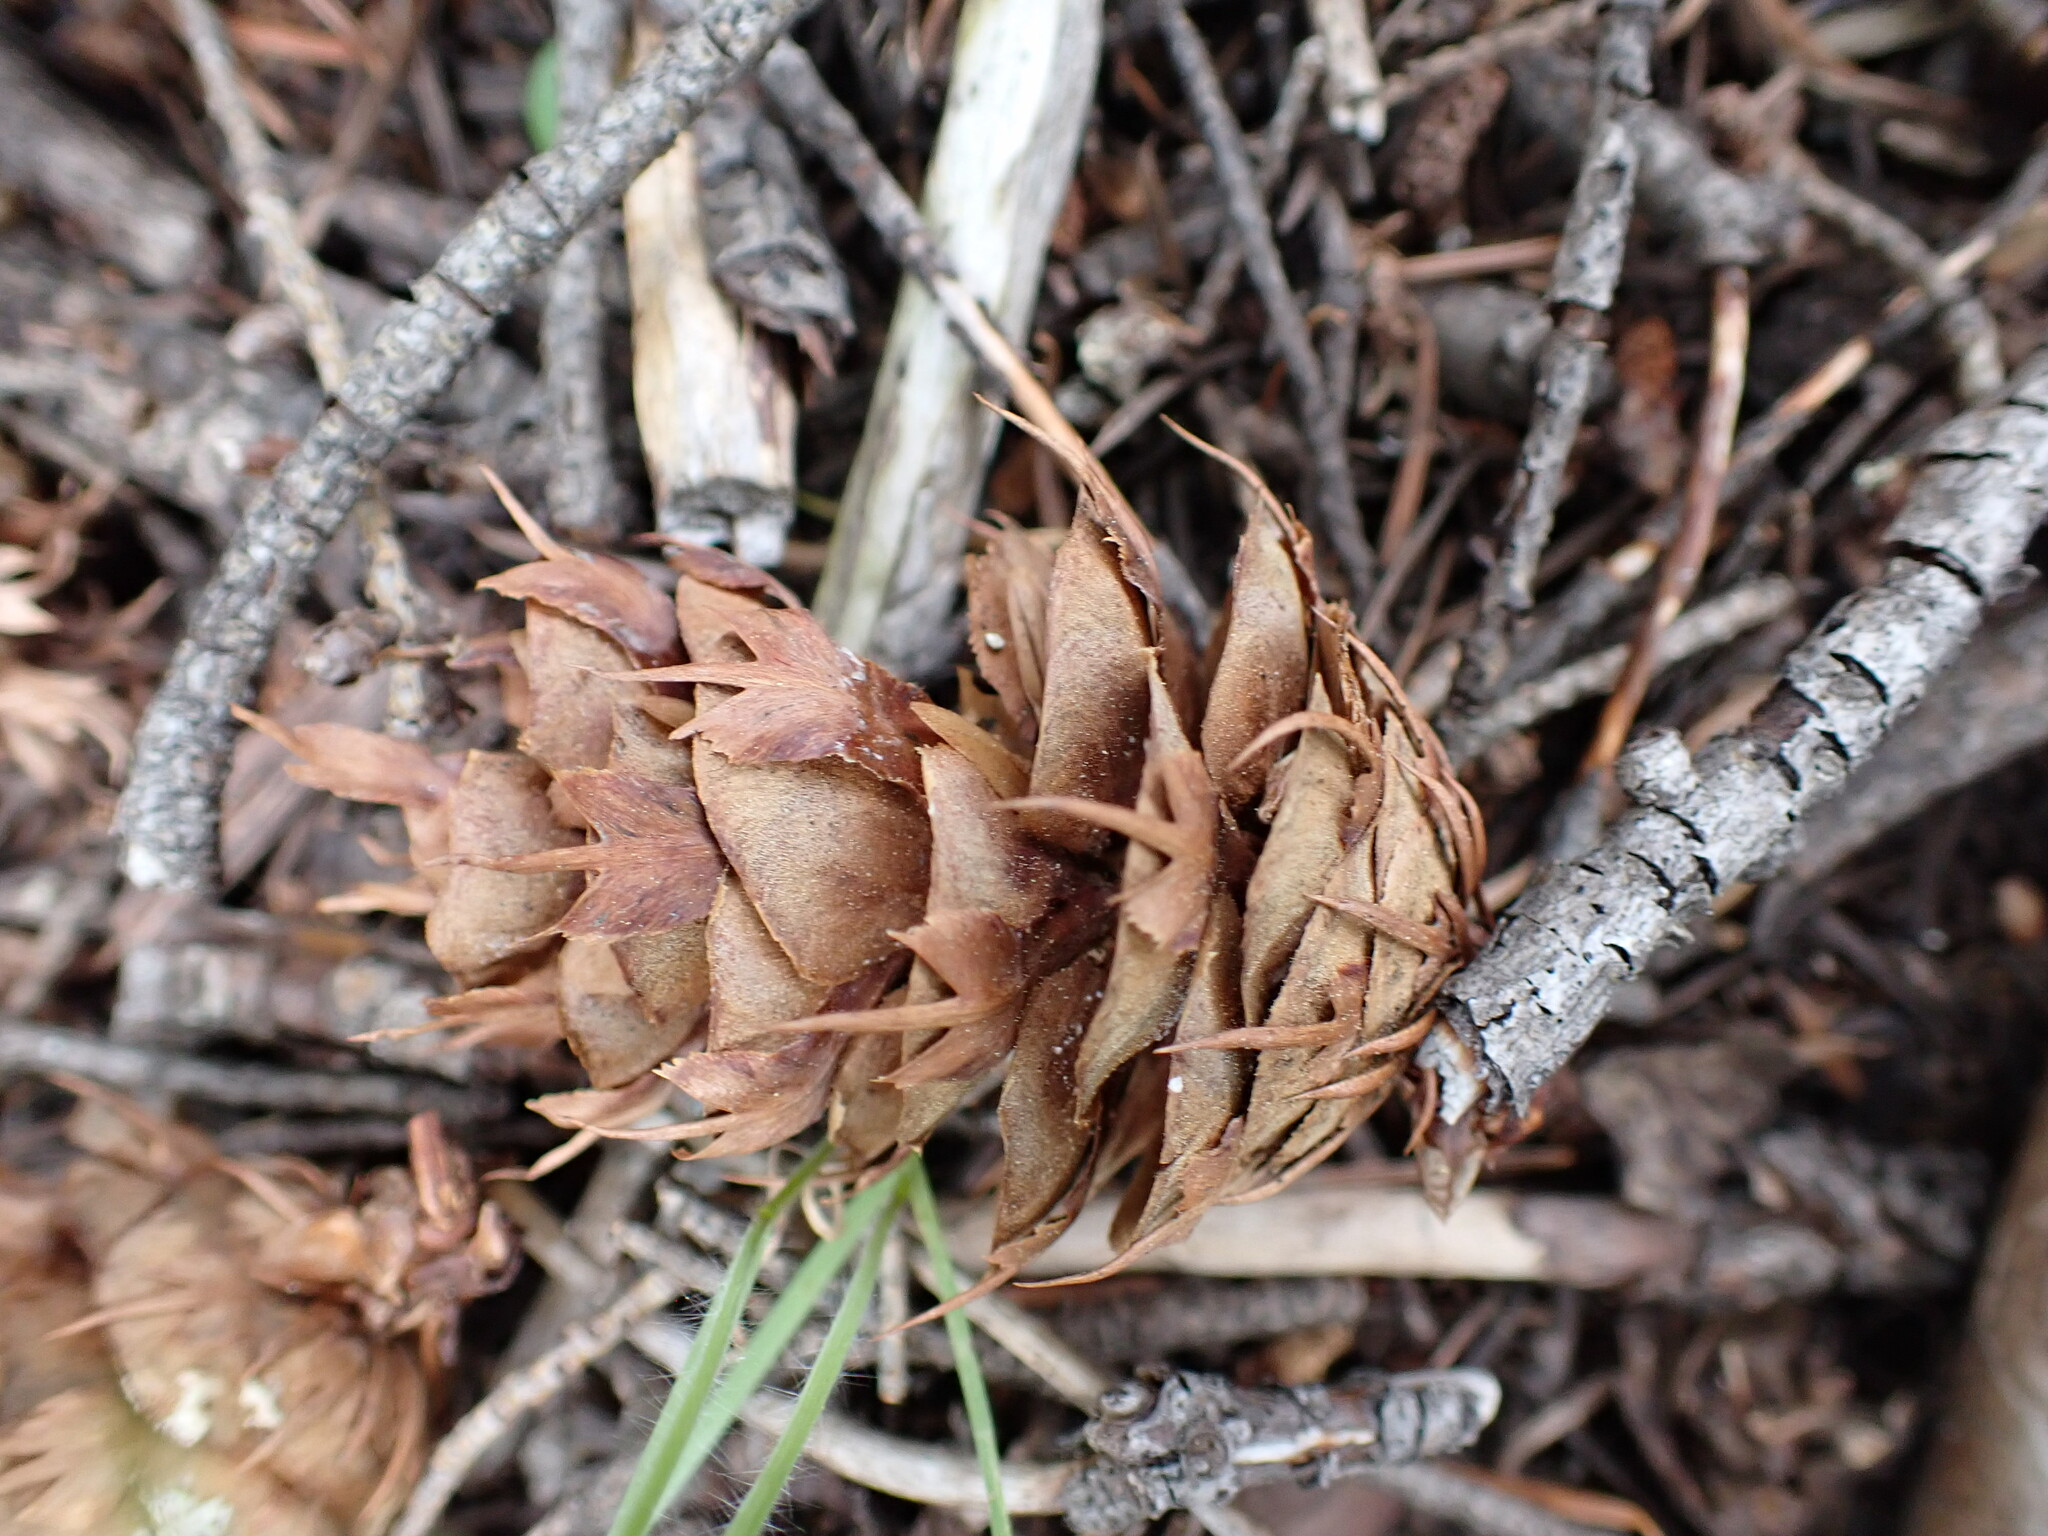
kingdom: Plantae
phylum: Tracheophyta
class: Pinopsida
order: Pinales
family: Pinaceae
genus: Pseudotsuga
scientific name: Pseudotsuga menziesii
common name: Douglas fir
